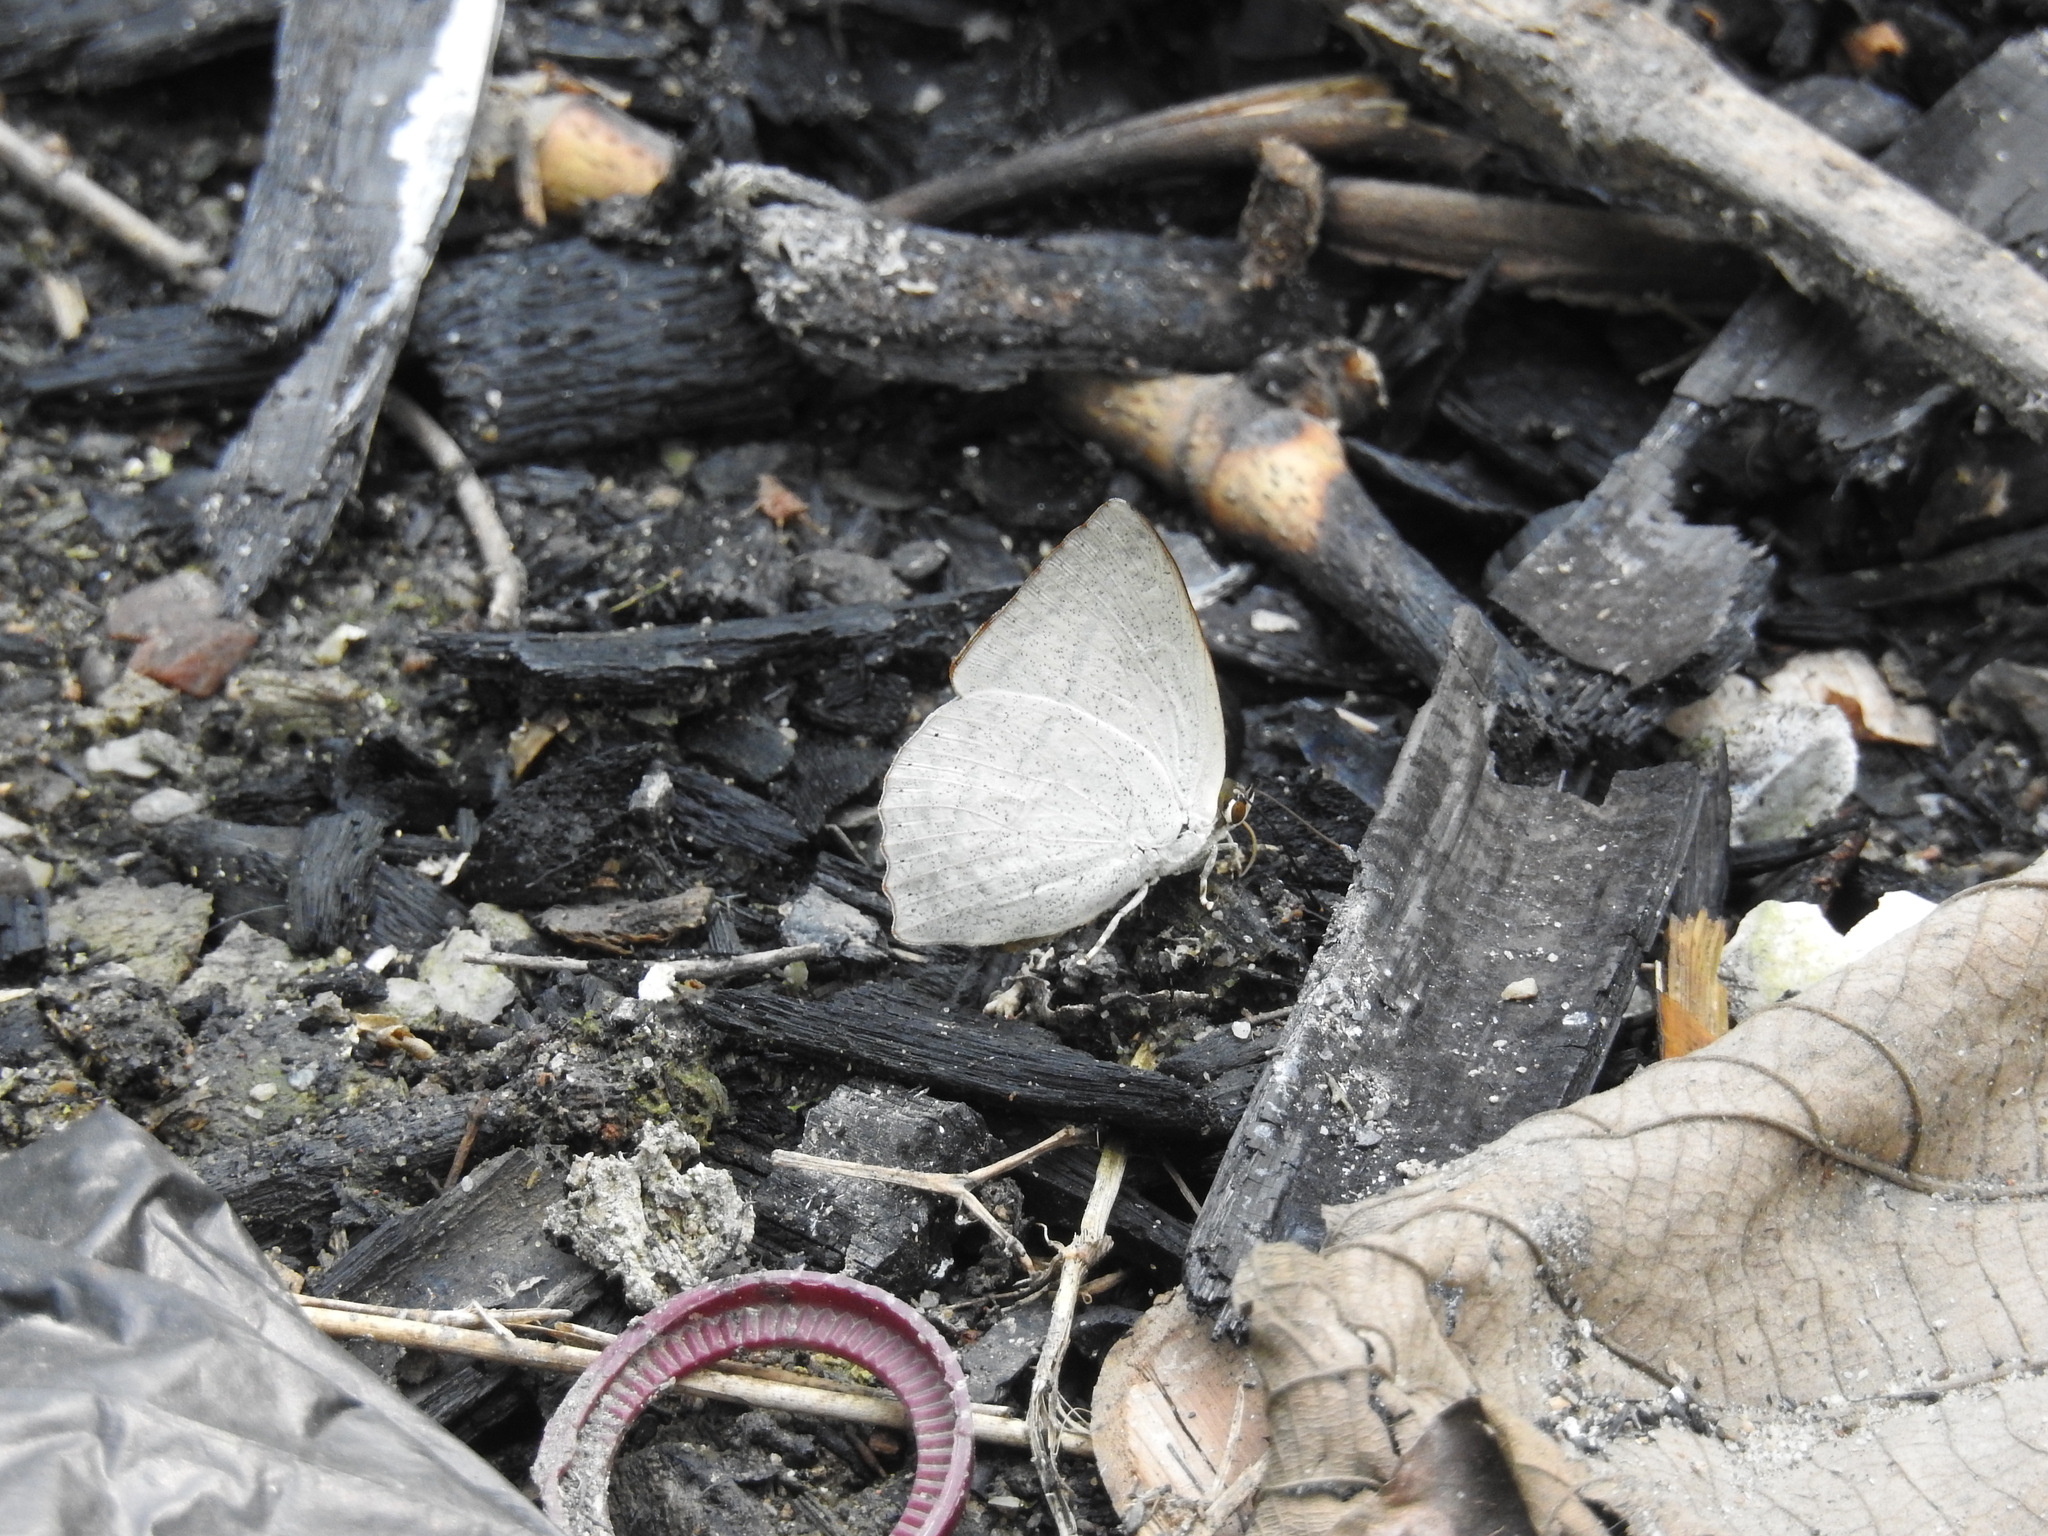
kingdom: Animalia
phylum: Arthropoda
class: Insecta
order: Lepidoptera
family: Lycaenidae
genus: Curetis
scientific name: Curetis acuta
